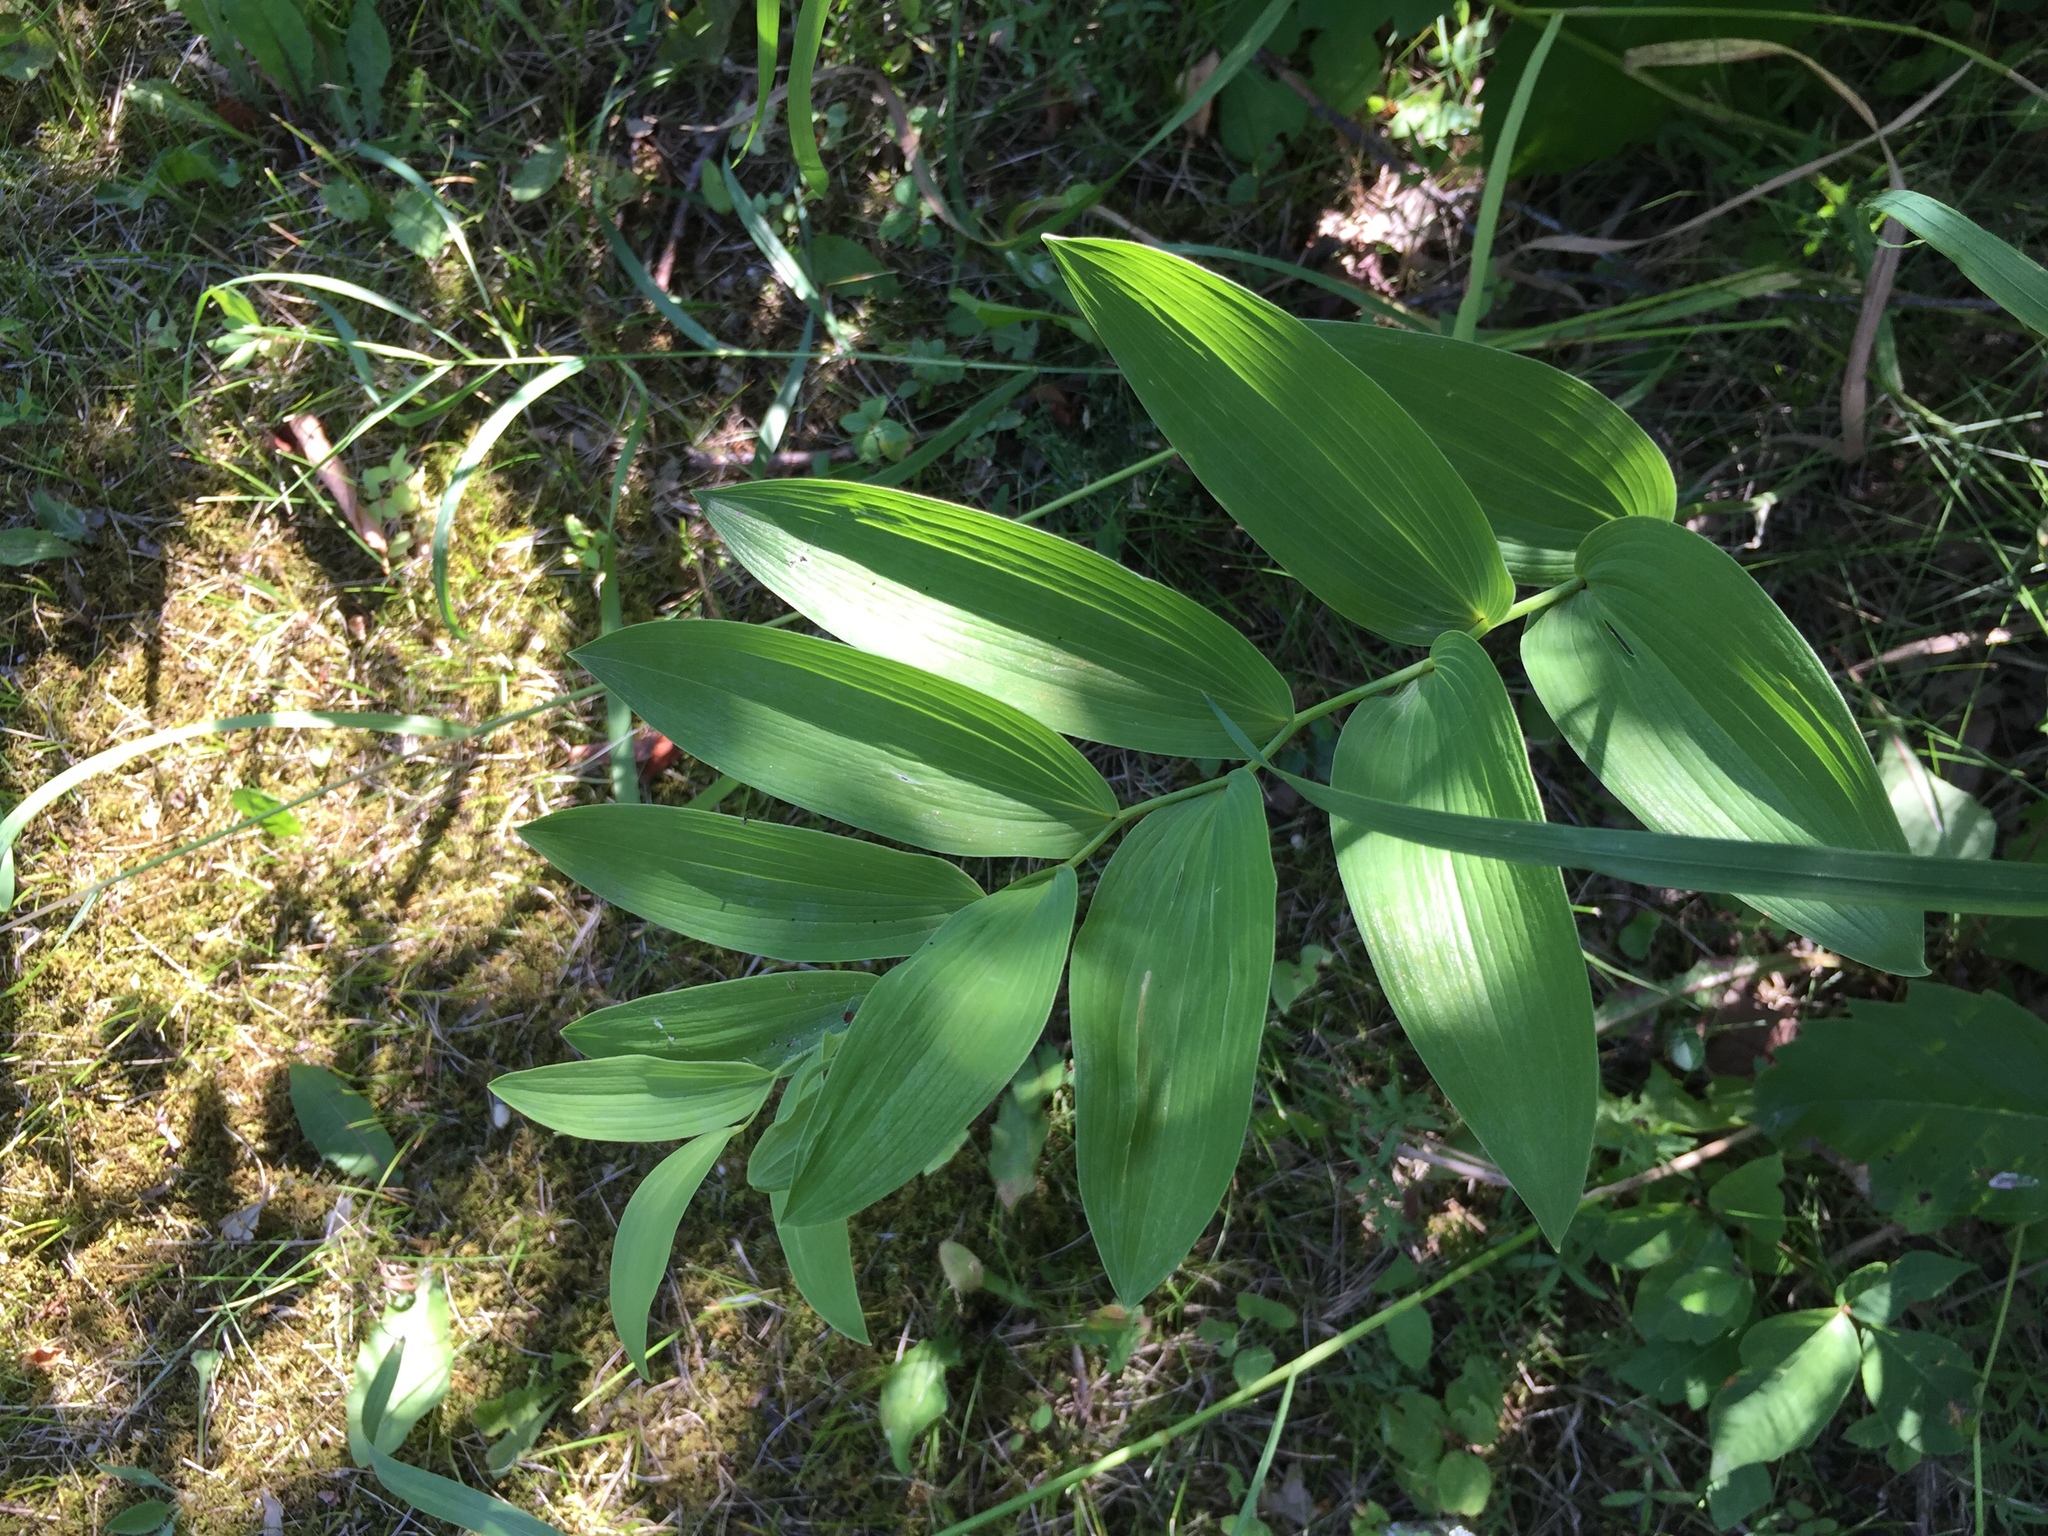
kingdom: Plantae
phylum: Tracheophyta
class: Liliopsida
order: Asparagales
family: Asparagaceae
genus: Polygonatum
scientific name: Polygonatum biflorum
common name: American solomon's-seal
